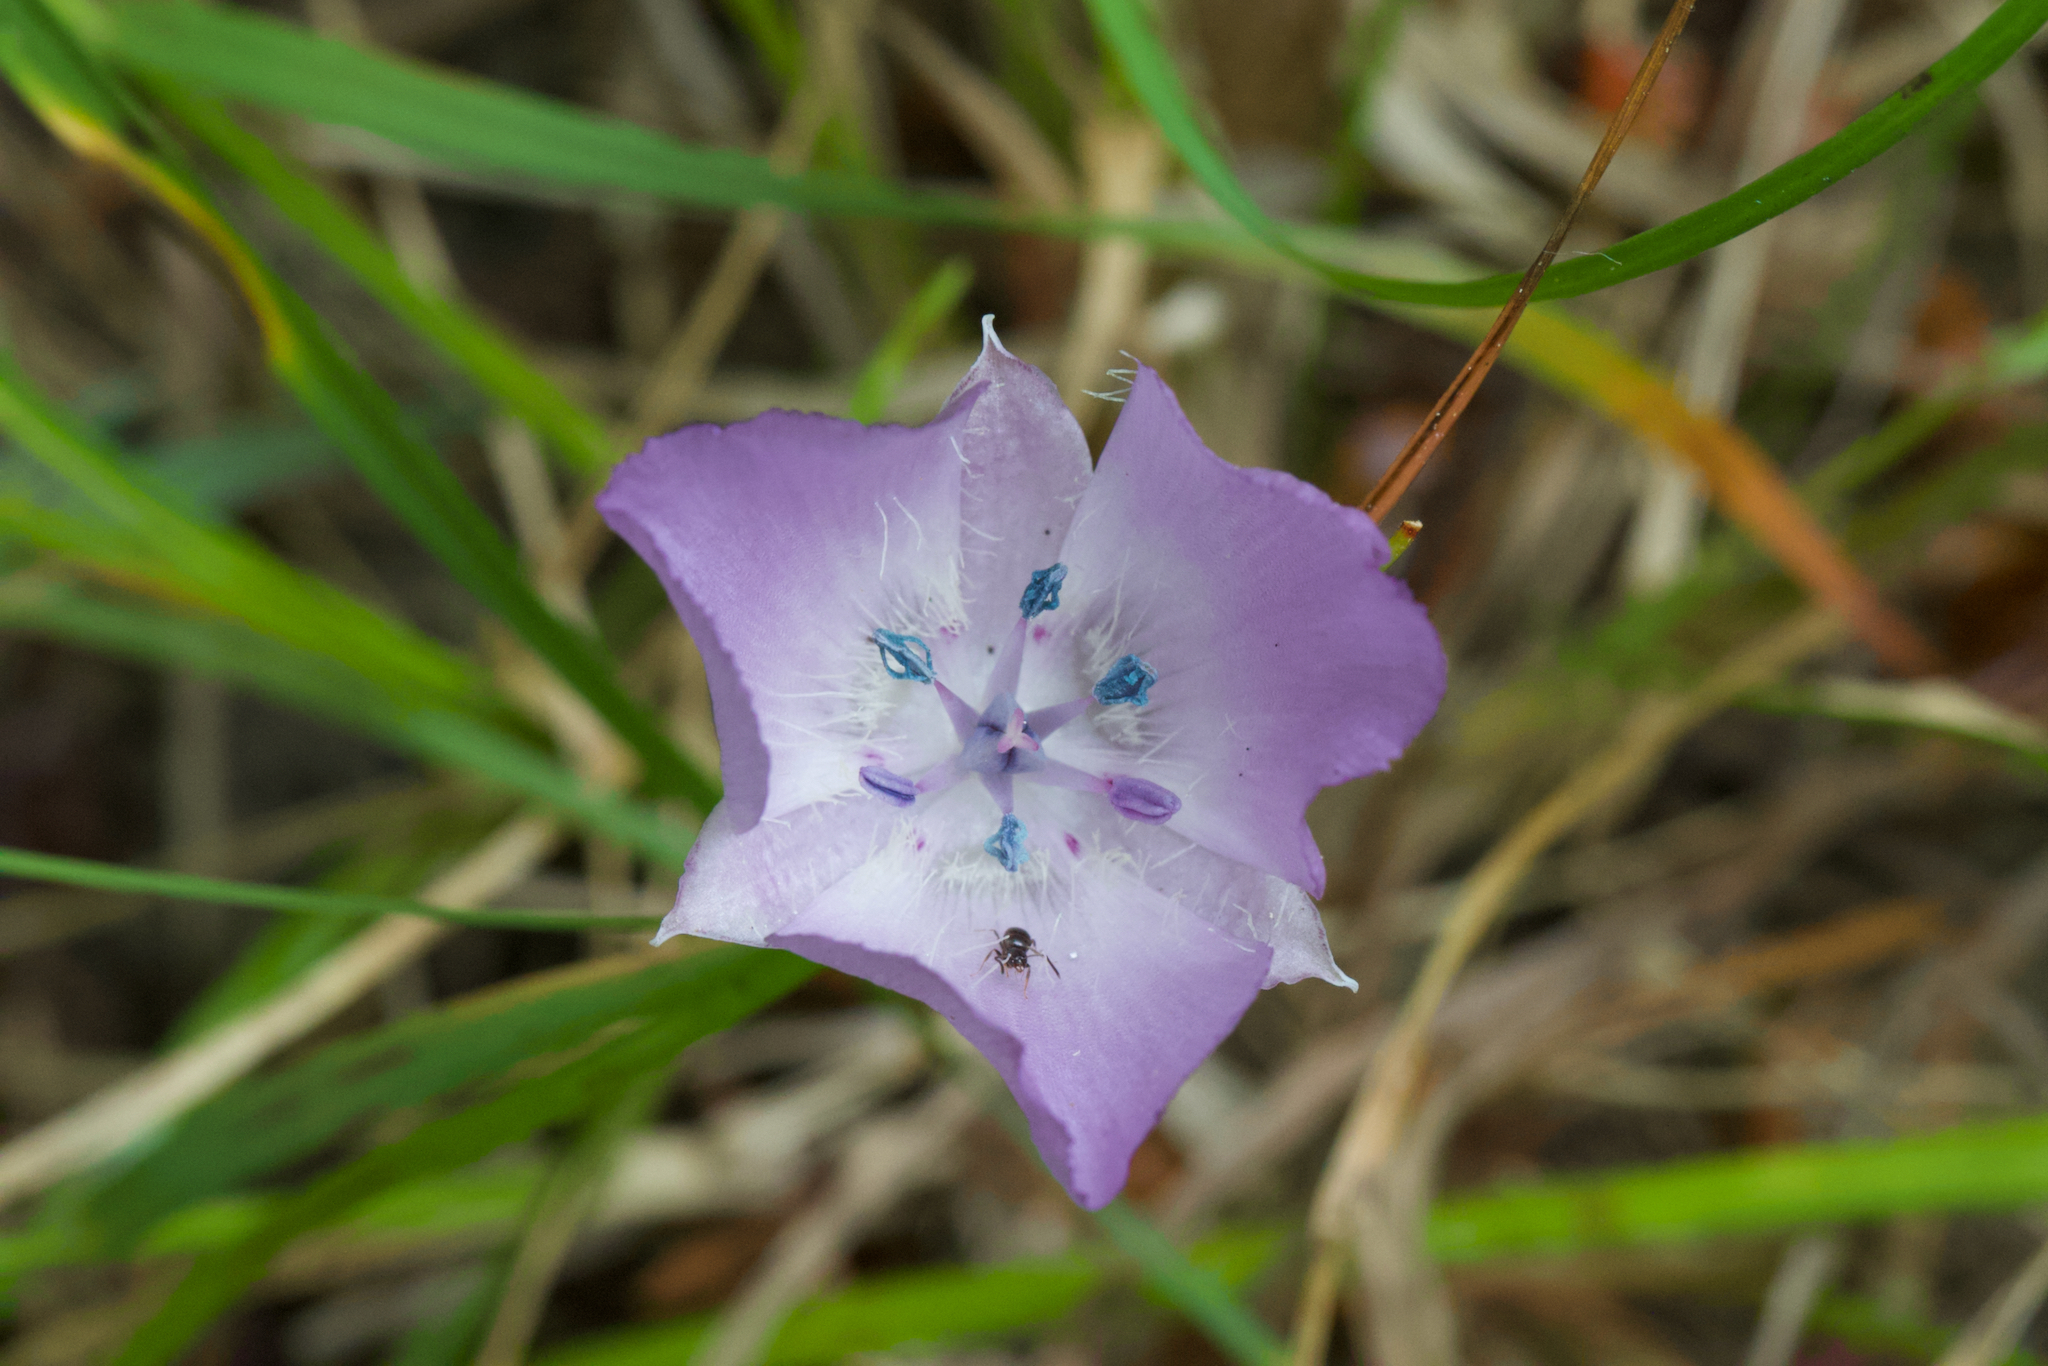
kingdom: Plantae
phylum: Tracheophyta
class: Liliopsida
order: Liliales
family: Liliaceae
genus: Calochortus
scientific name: Calochortus uniflorus
